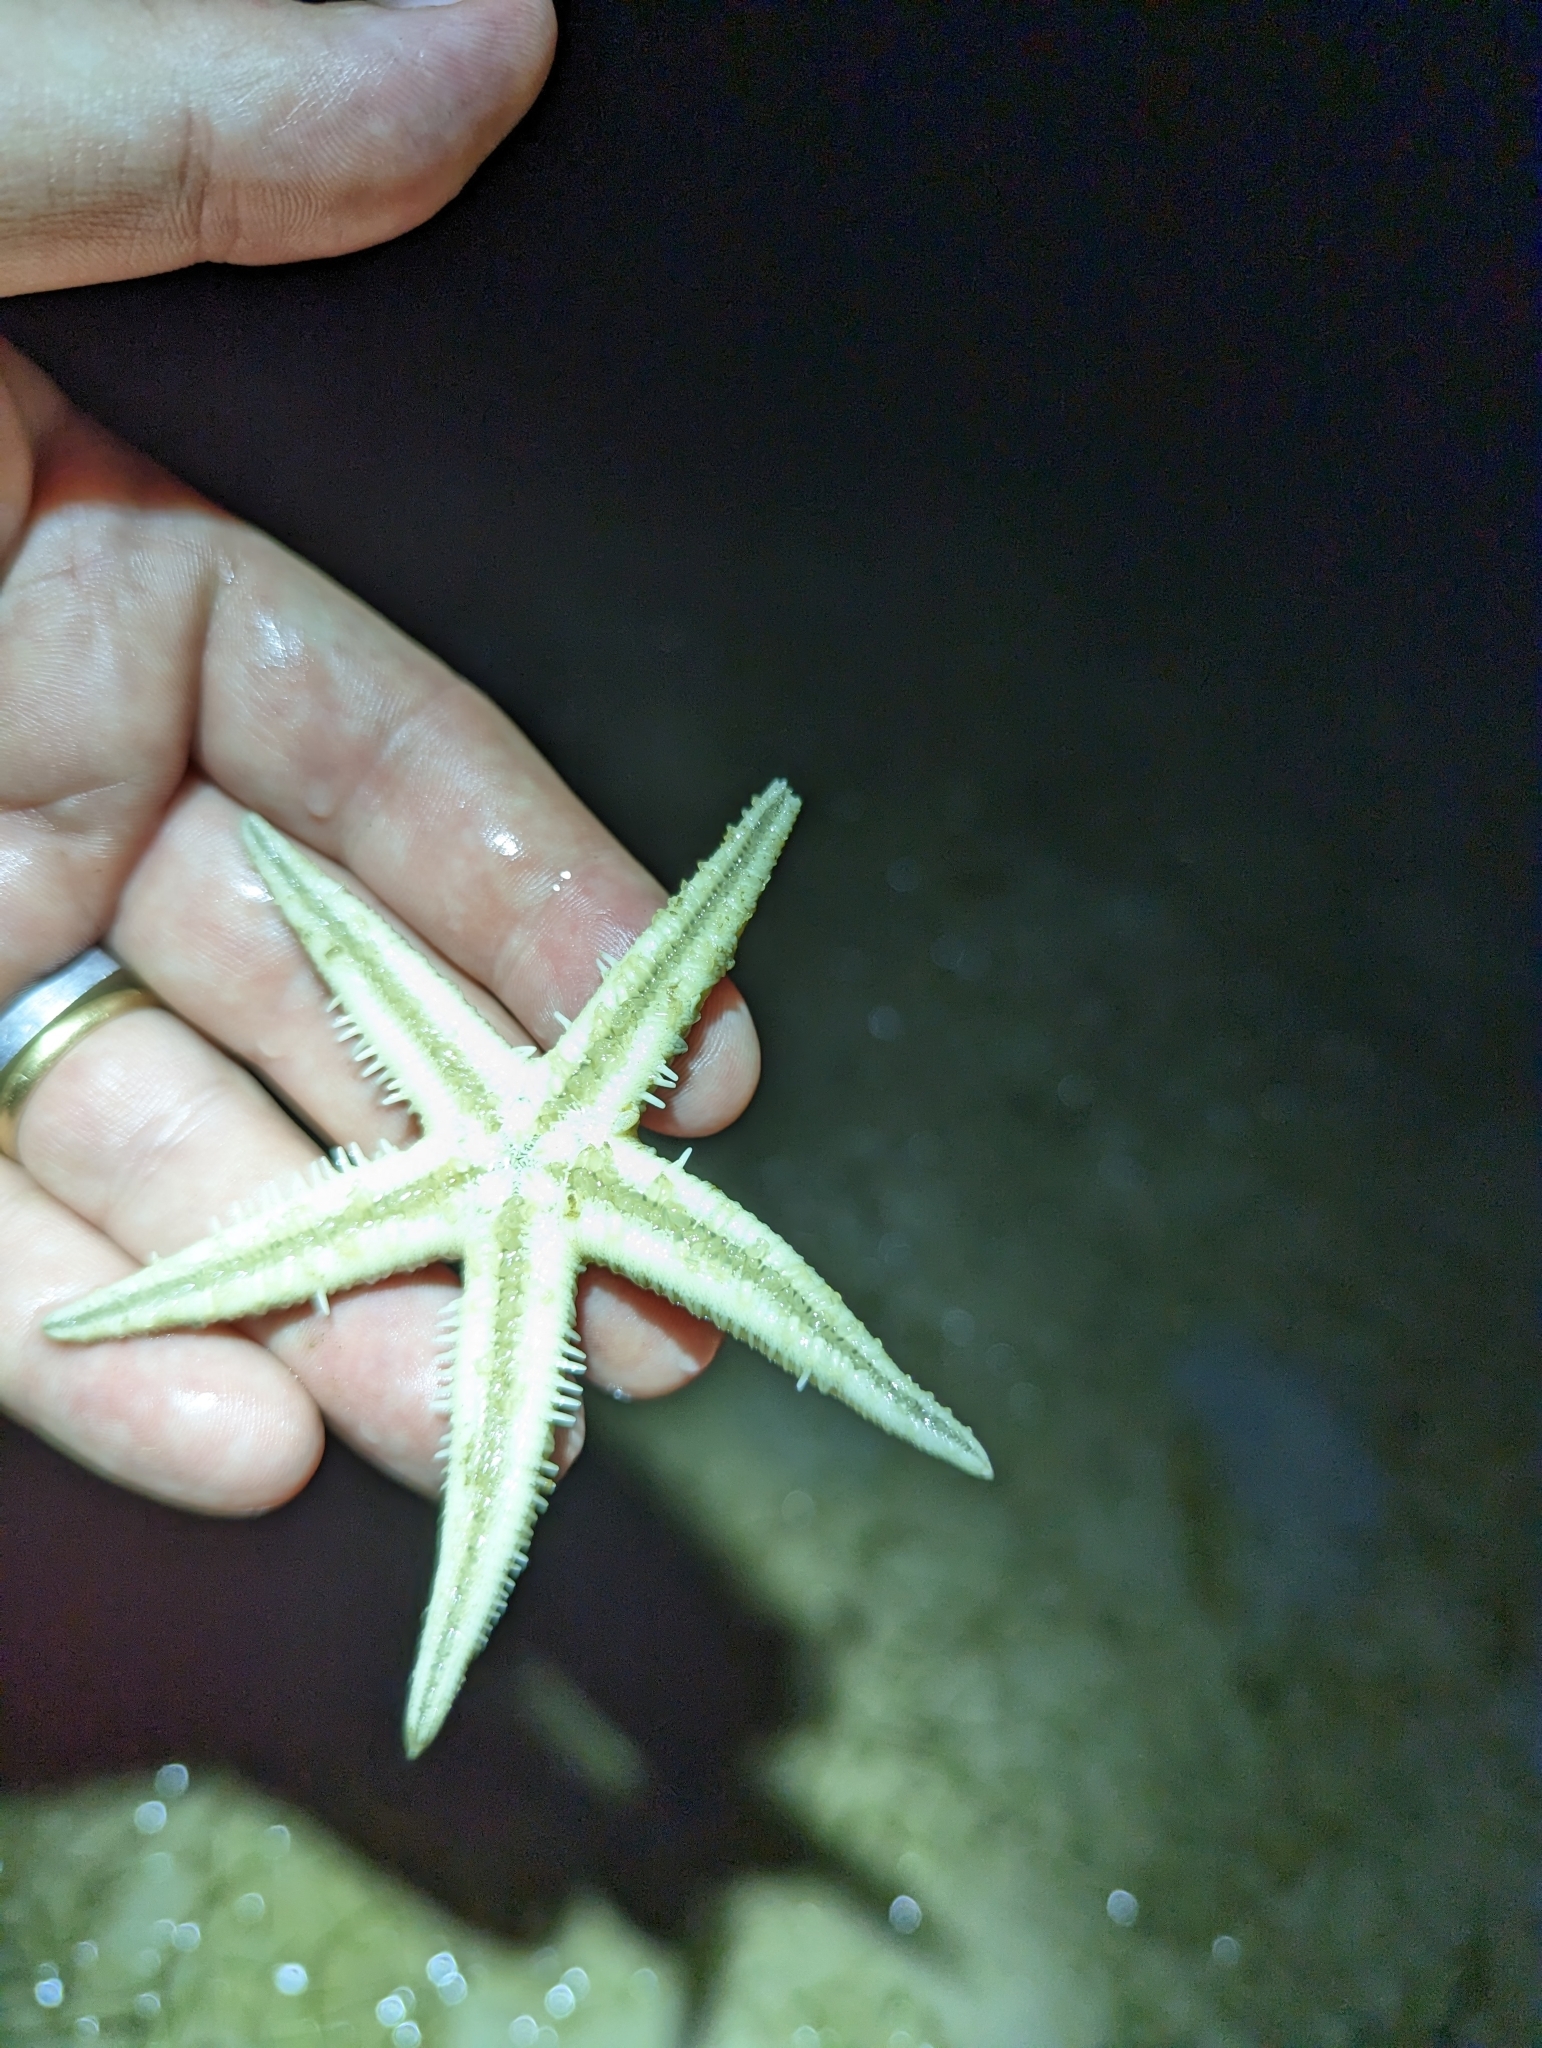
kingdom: Animalia
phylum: Echinodermata
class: Asteroidea
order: Valvatida
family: Archasteridae
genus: Archaster
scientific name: Archaster typicus
